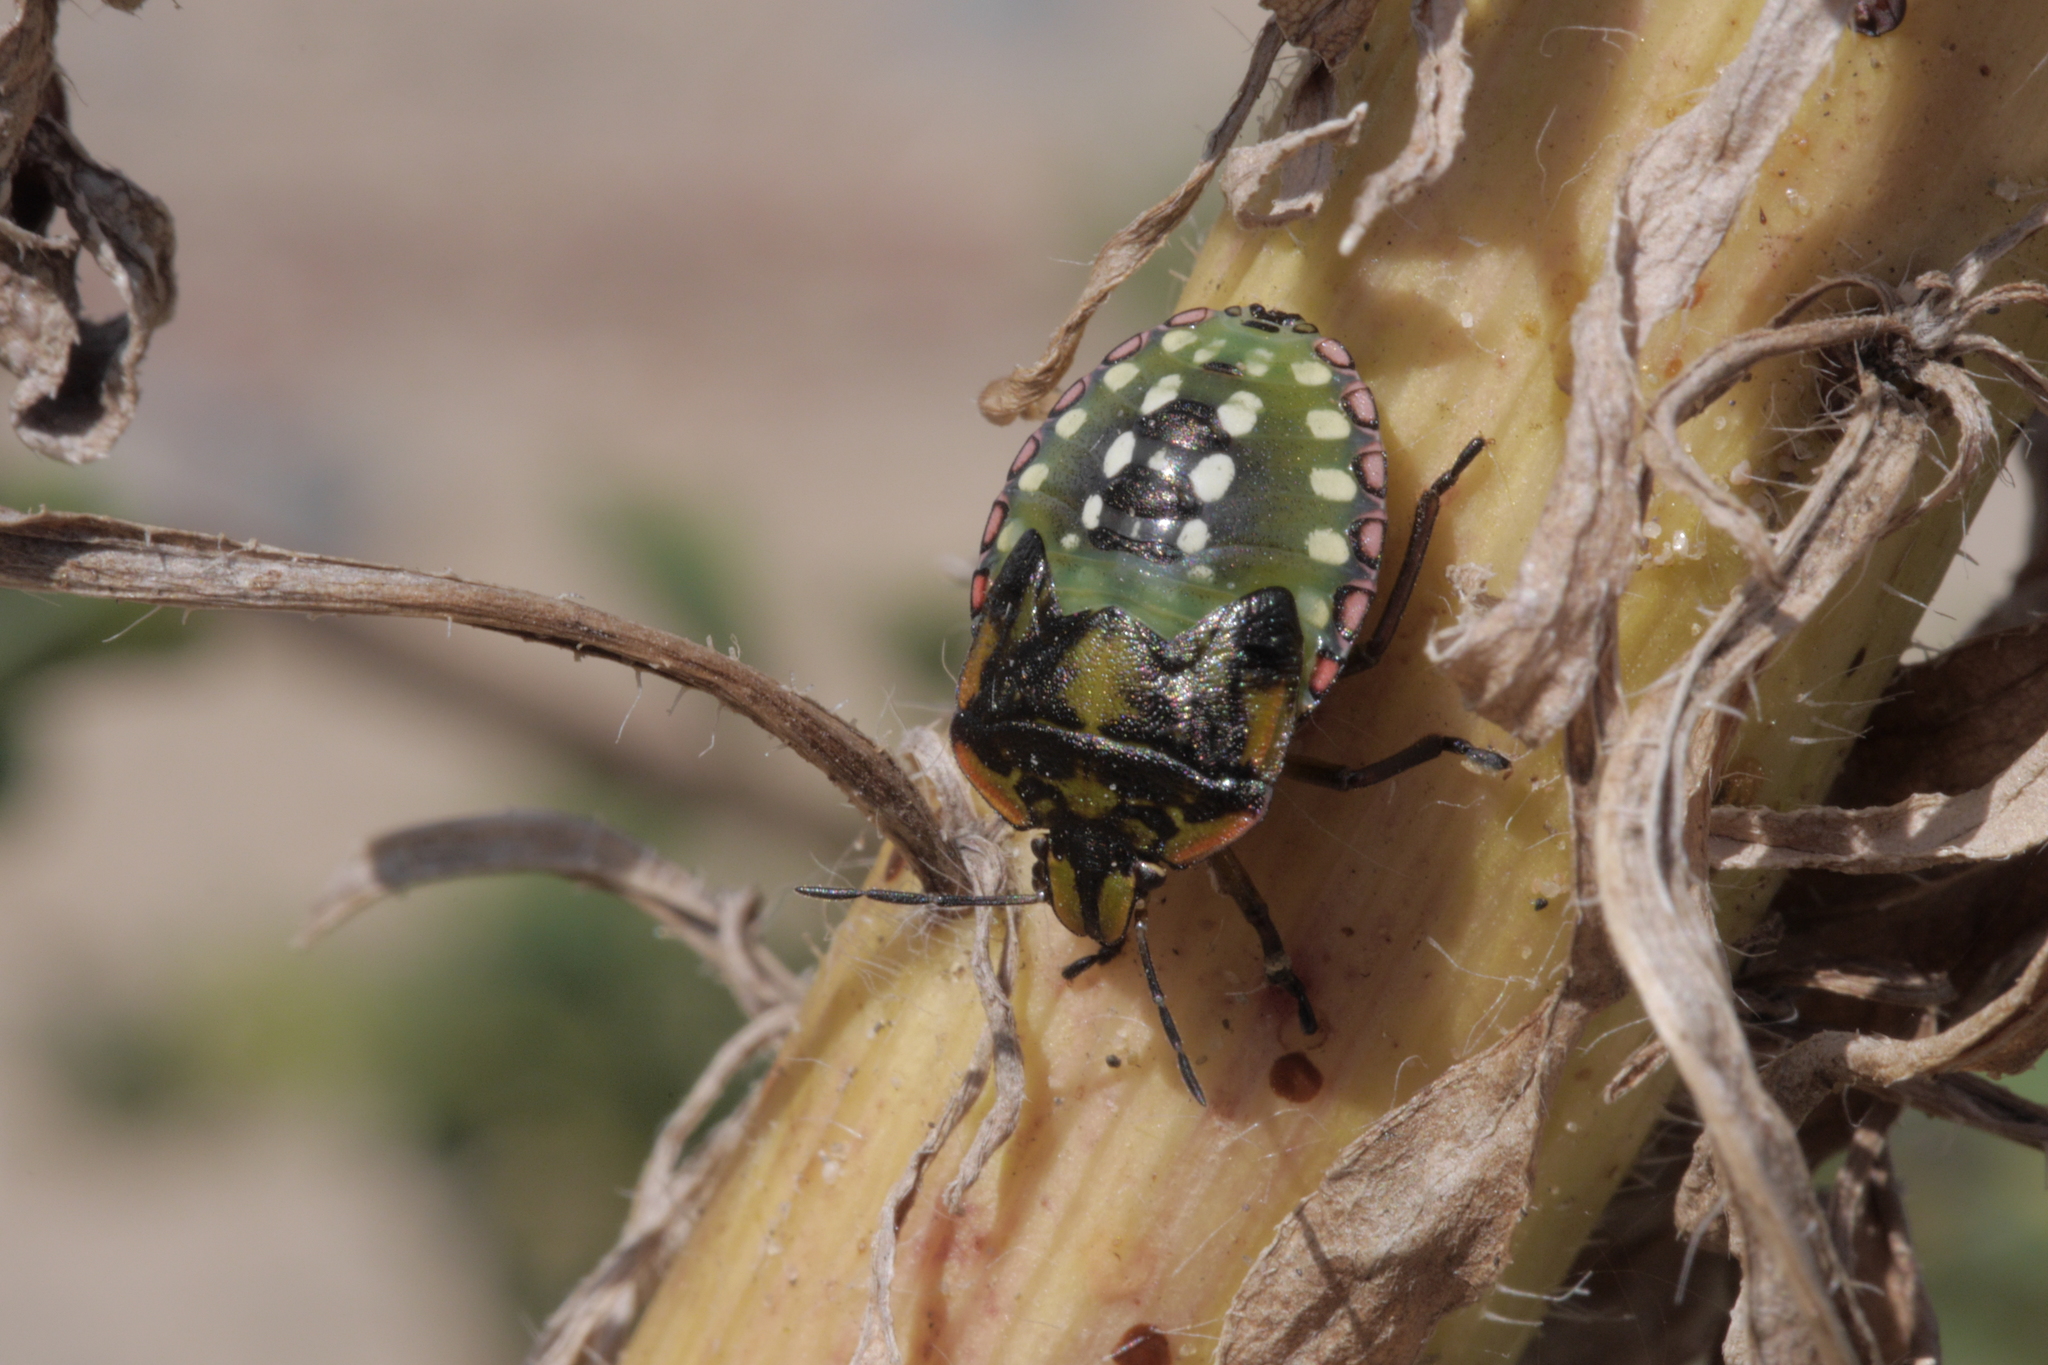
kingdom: Animalia
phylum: Arthropoda
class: Insecta
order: Hemiptera
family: Pentatomidae
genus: Nezara
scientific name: Nezara viridula
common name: Southern green stink bug
